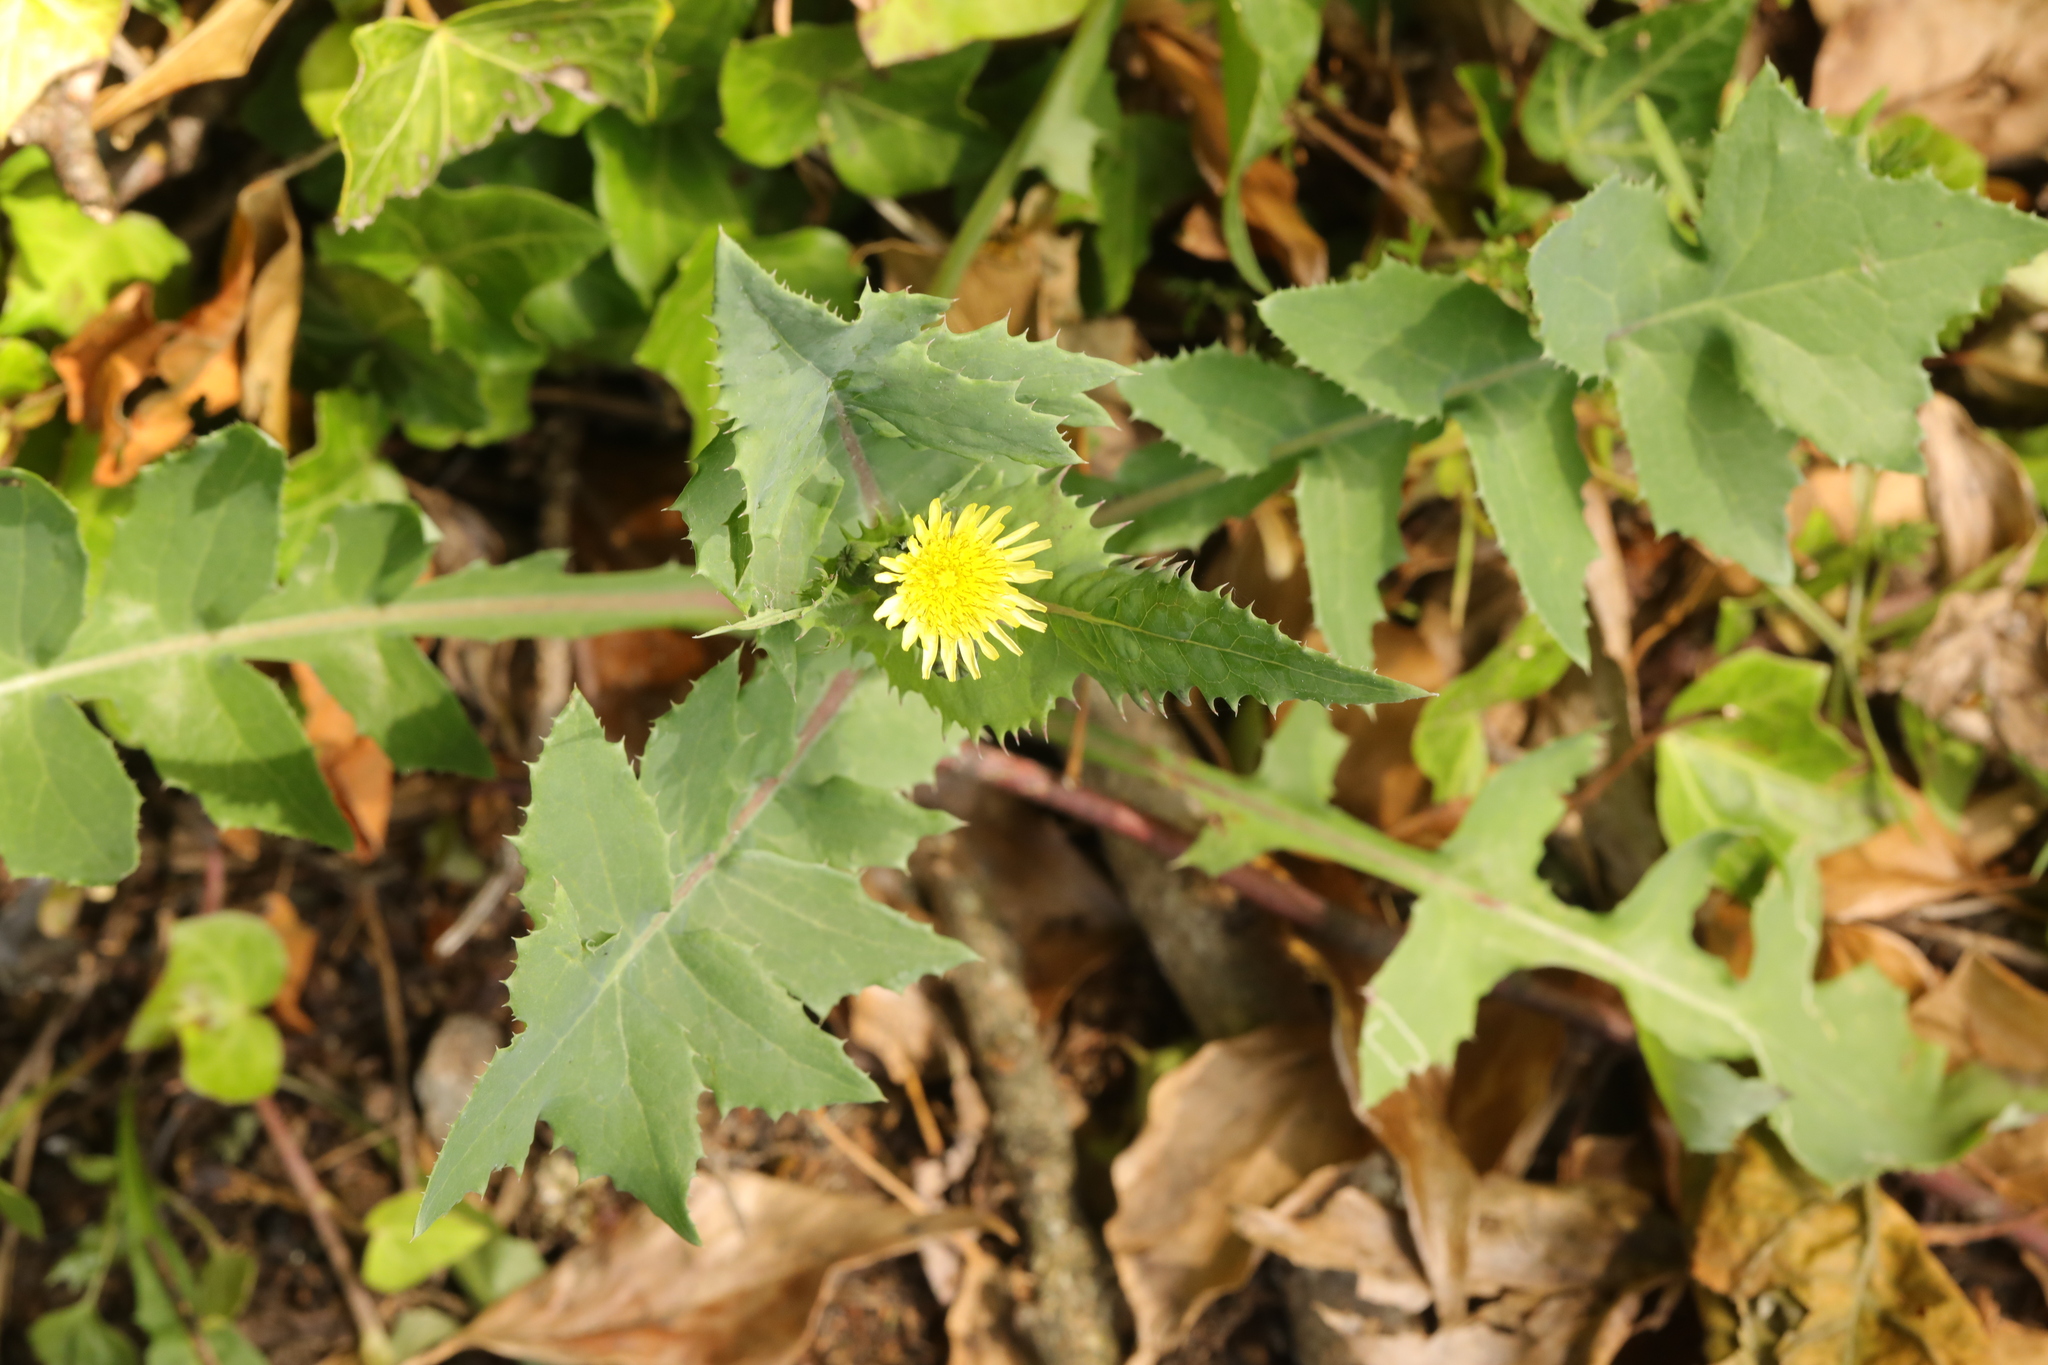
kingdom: Plantae
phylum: Tracheophyta
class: Magnoliopsida
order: Asterales
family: Asteraceae
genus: Sonchus
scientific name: Sonchus oleraceus
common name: Common sowthistle
